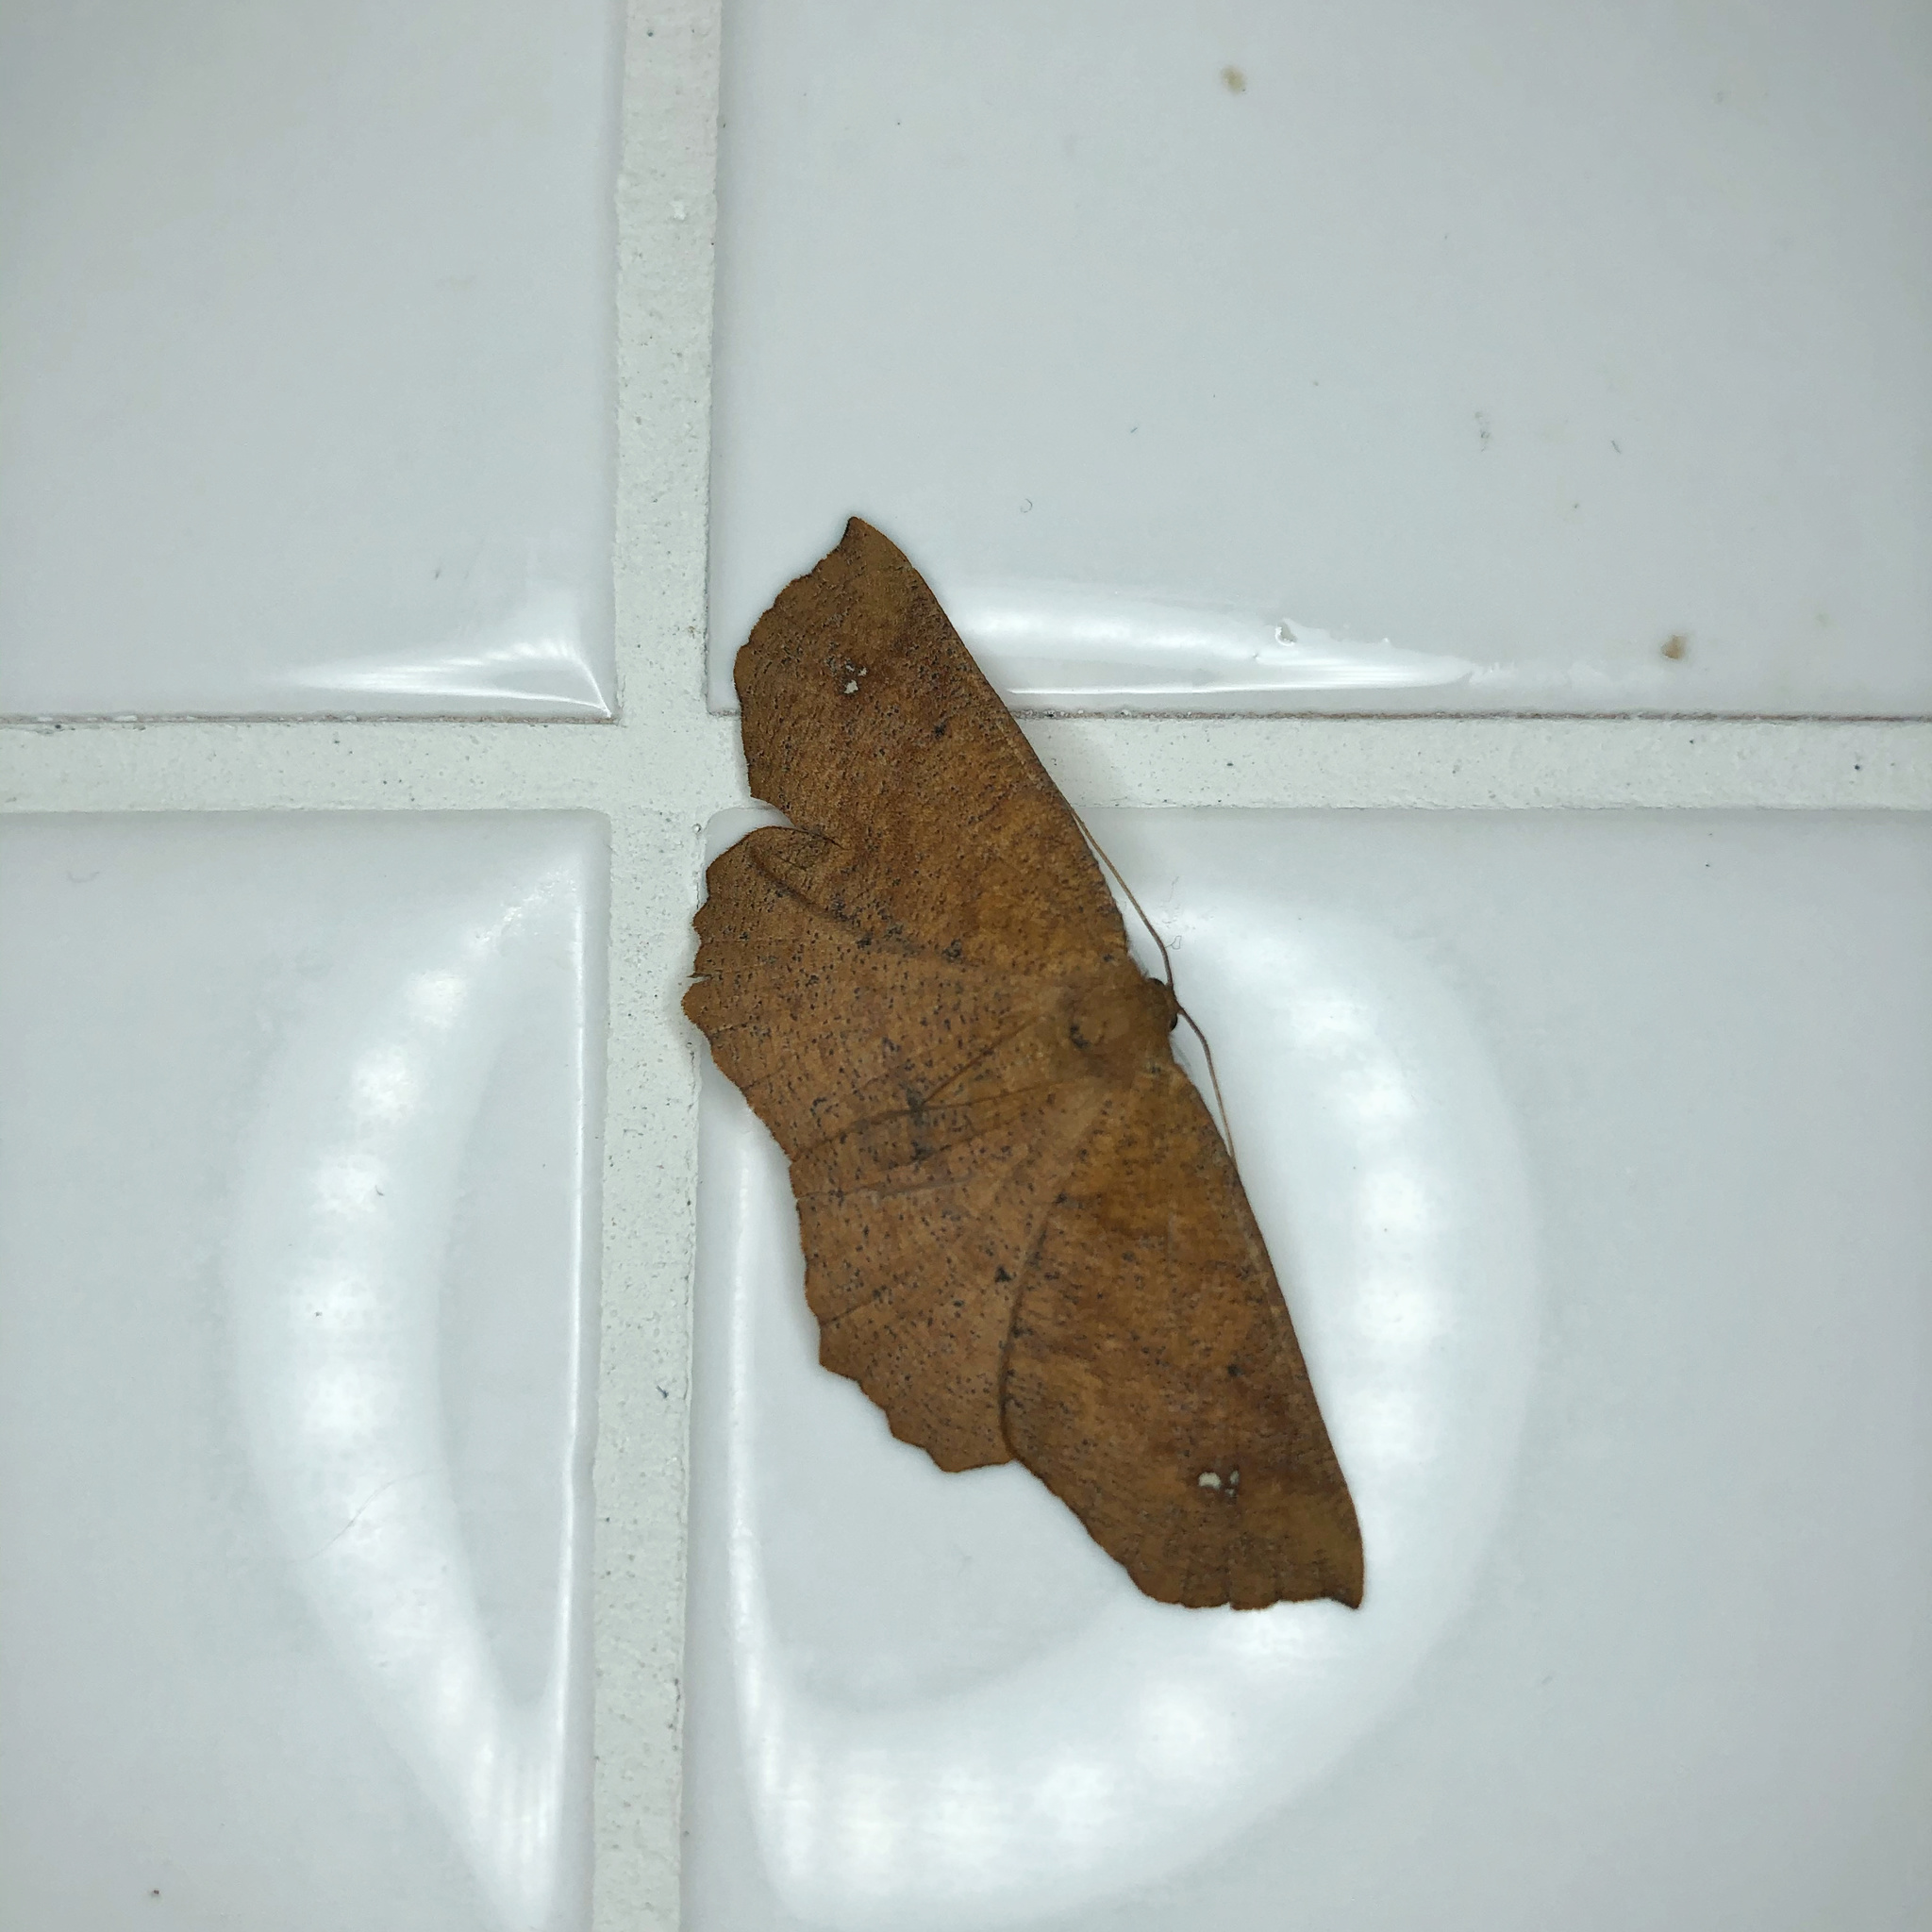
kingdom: Animalia
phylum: Arthropoda
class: Insecta
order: Lepidoptera
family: Geometridae
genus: Xyridacma
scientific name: Xyridacma ustaria
